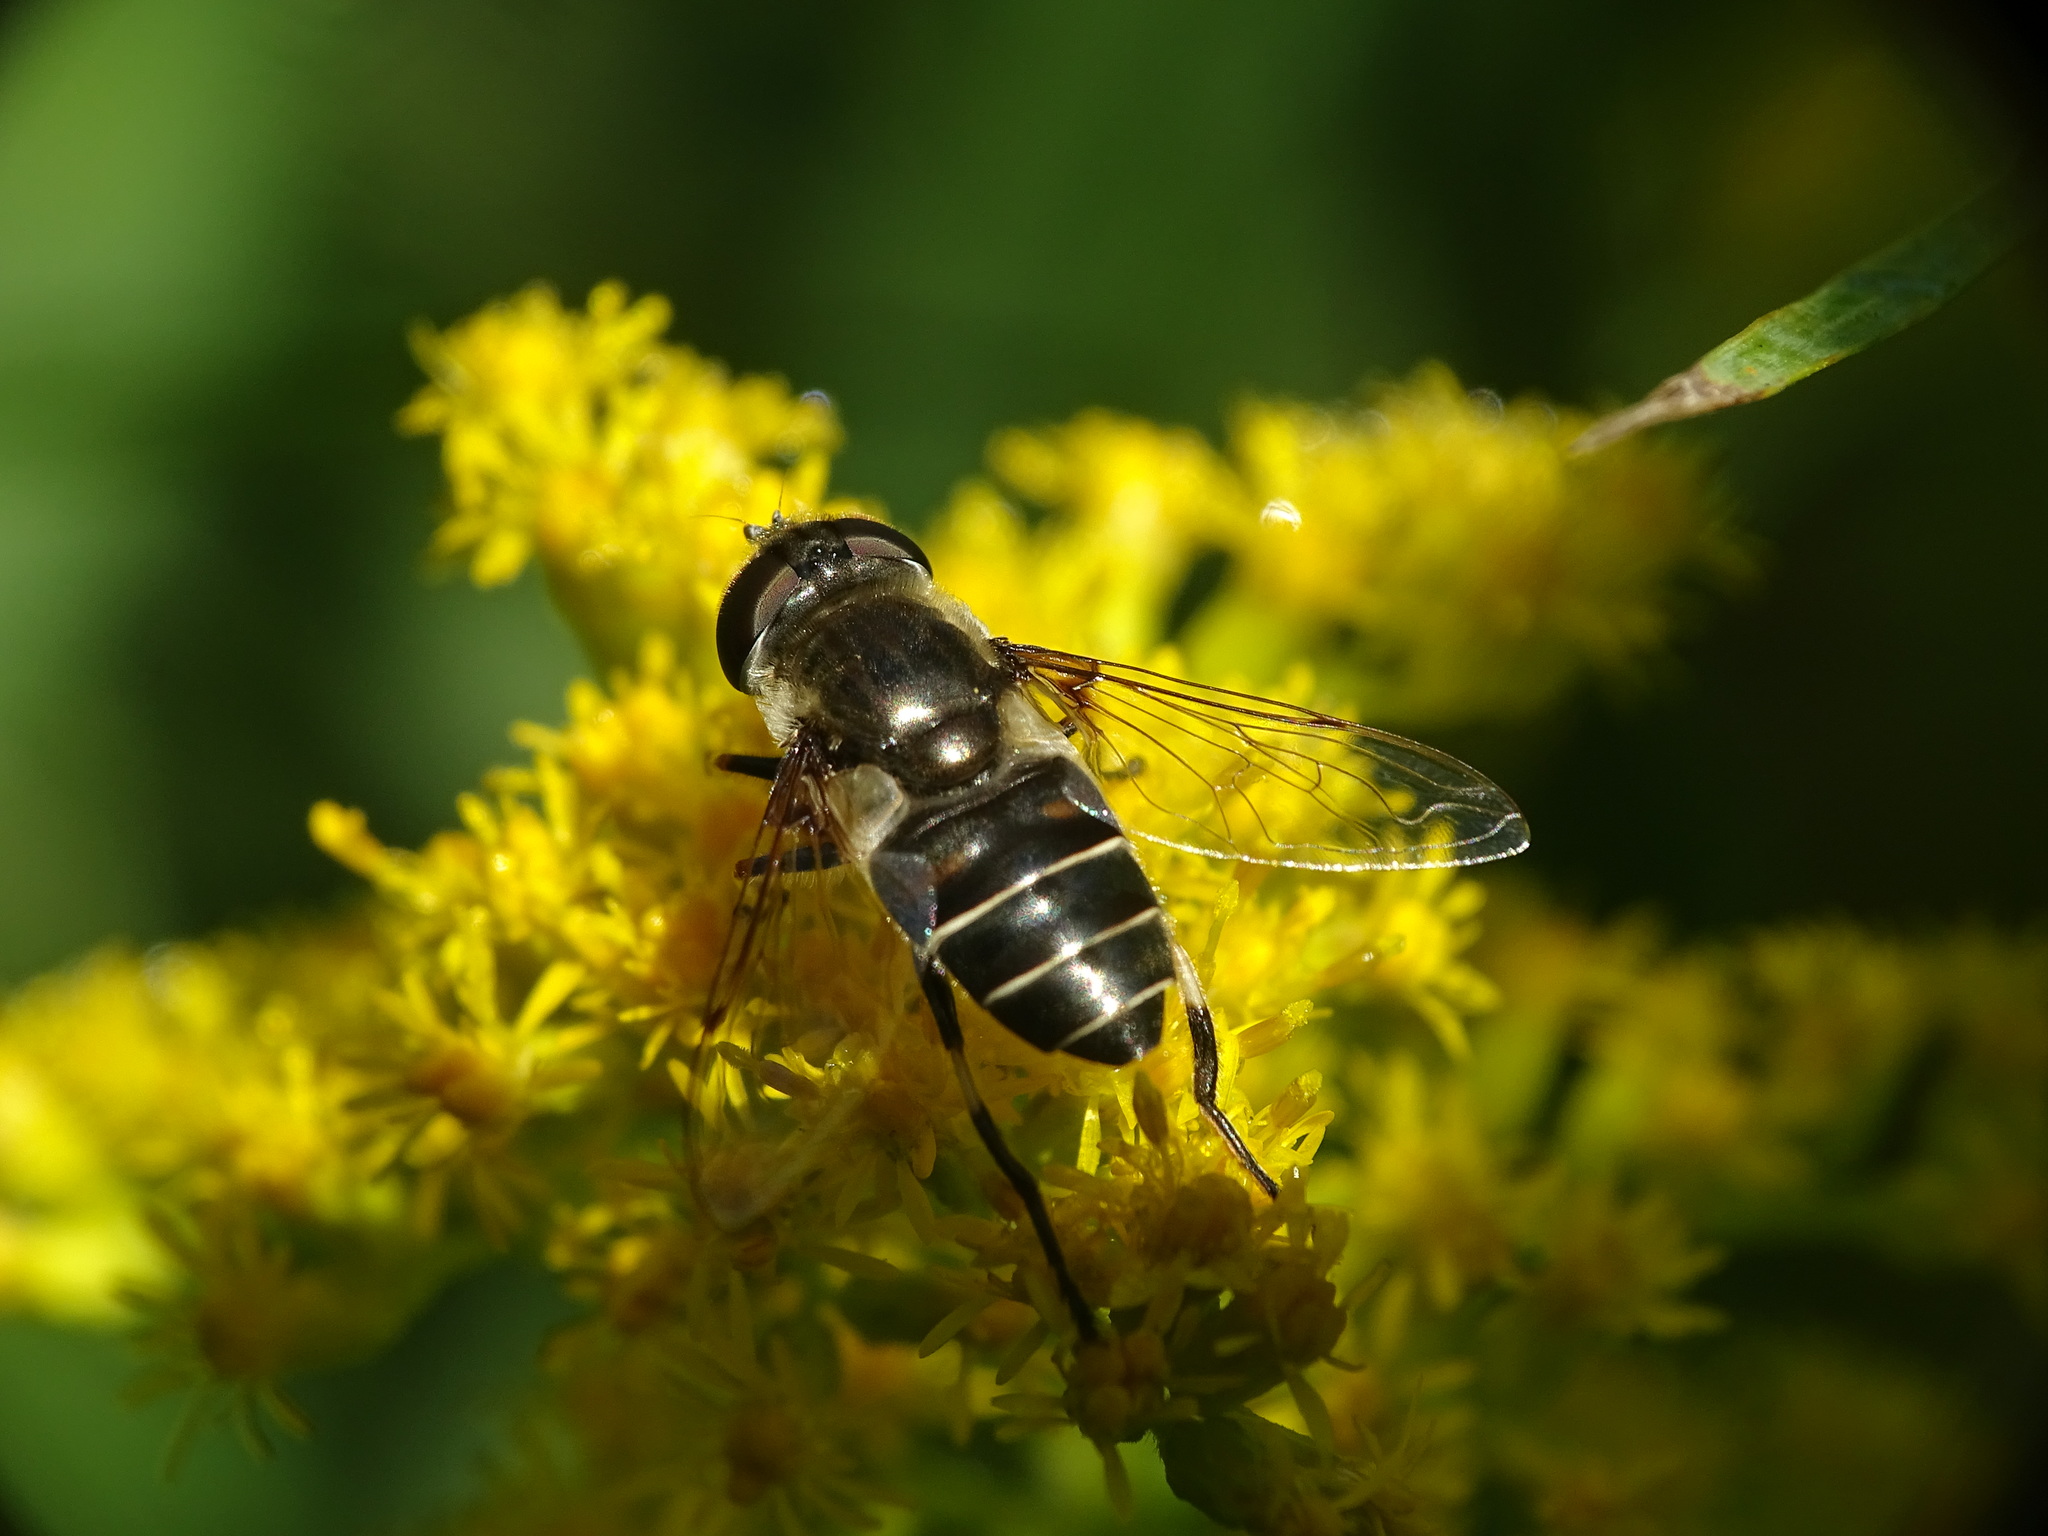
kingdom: Animalia
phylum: Arthropoda
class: Insecta
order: Diptera
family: Syrphidae
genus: Eristalis
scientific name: Eristalis dimidiata
